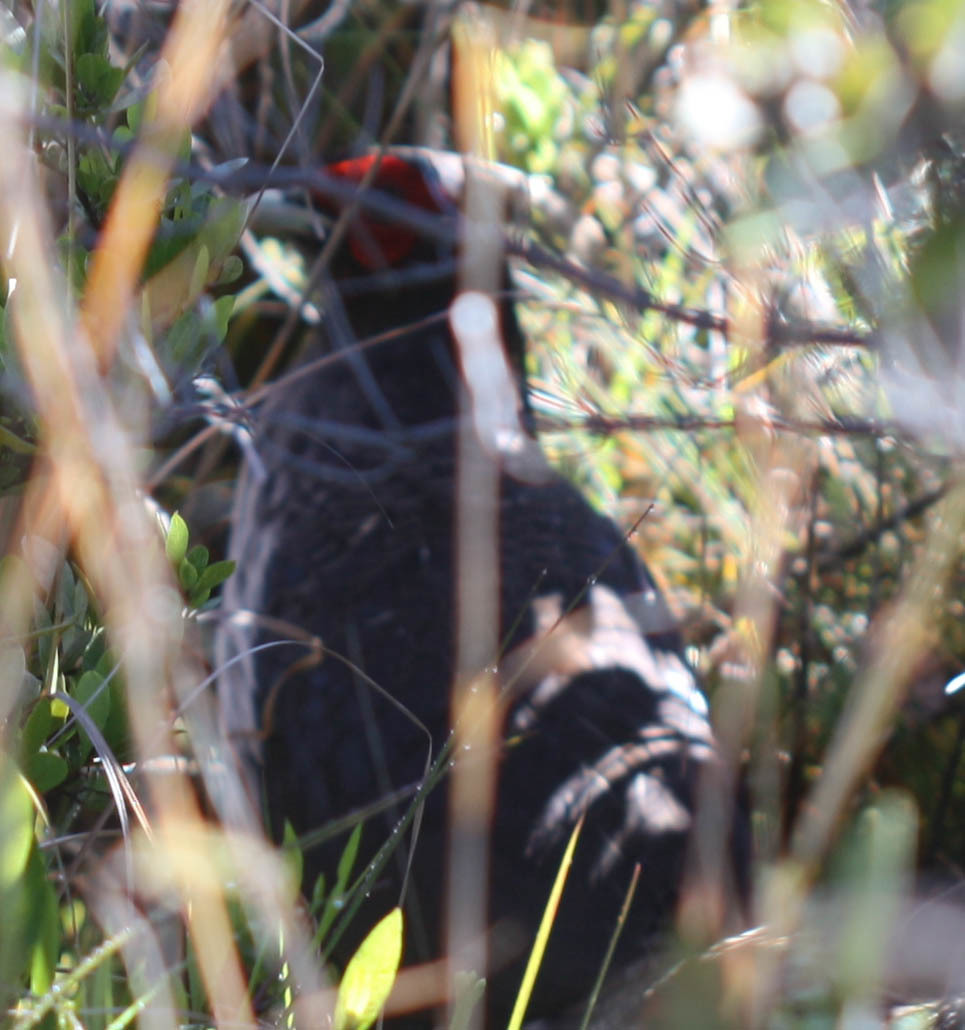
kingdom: Animalia
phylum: Chordata
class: Aves
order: Galliformes
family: Phasianidae
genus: Lophura
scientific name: Lophura leucomelanos
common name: Kalij pheasant
